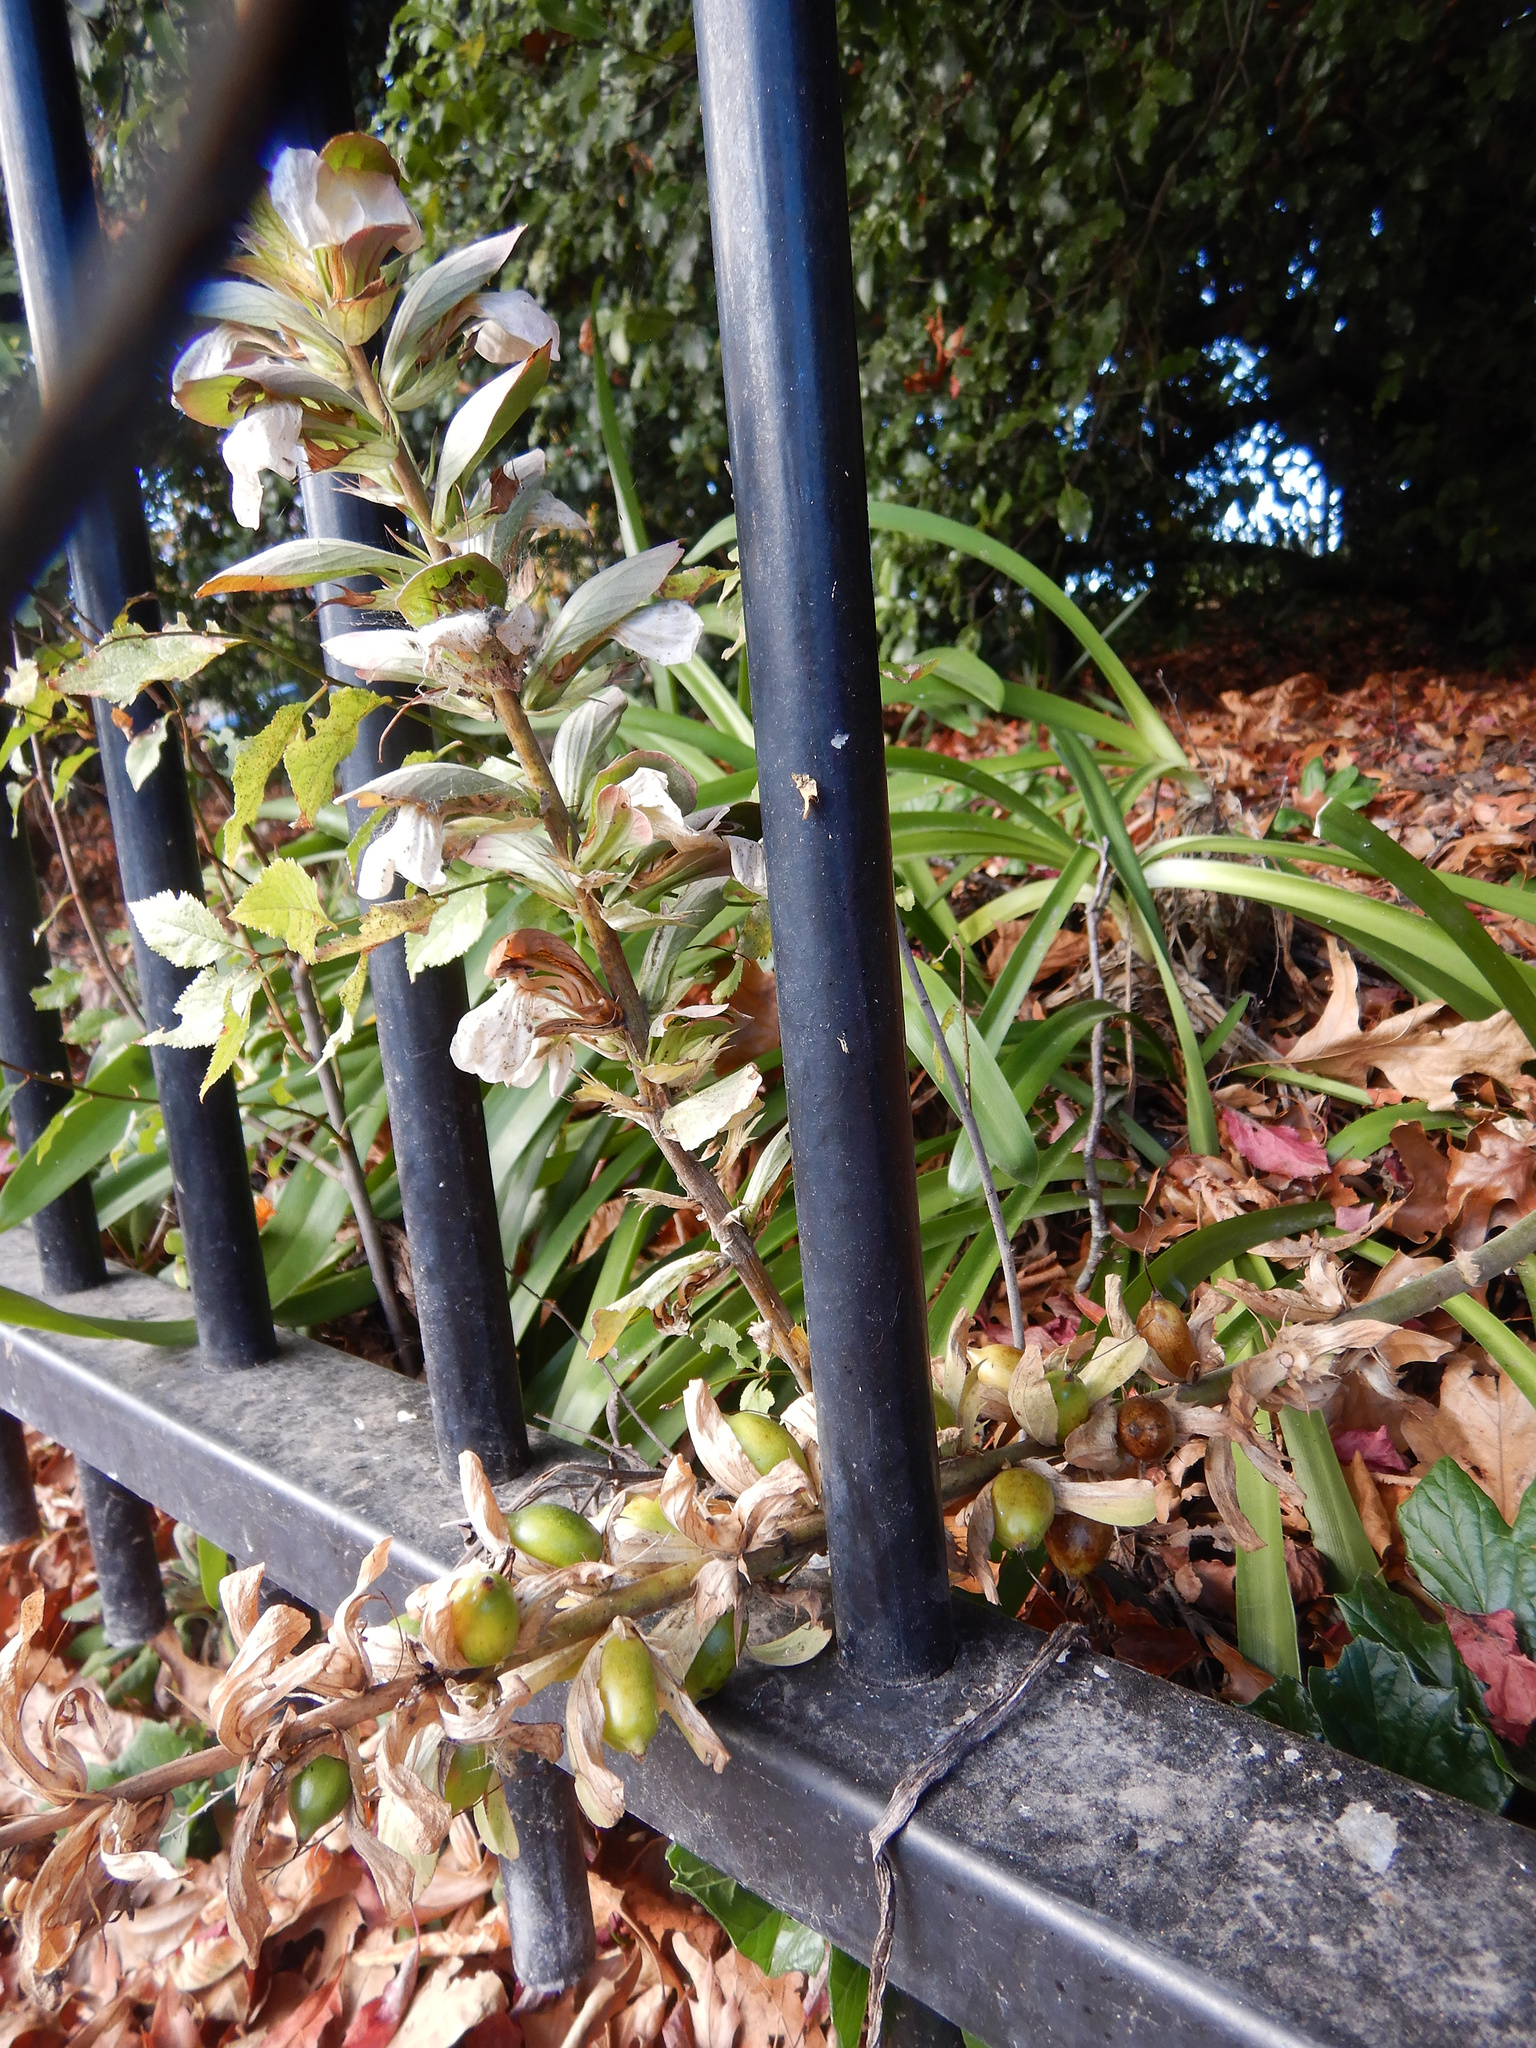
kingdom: Plantae
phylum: Tracheophyta
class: Magnoliopsida
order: Lamiales
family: Acanthaceae
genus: Acanthus
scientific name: Acanthus mollis
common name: Bear's-breech
